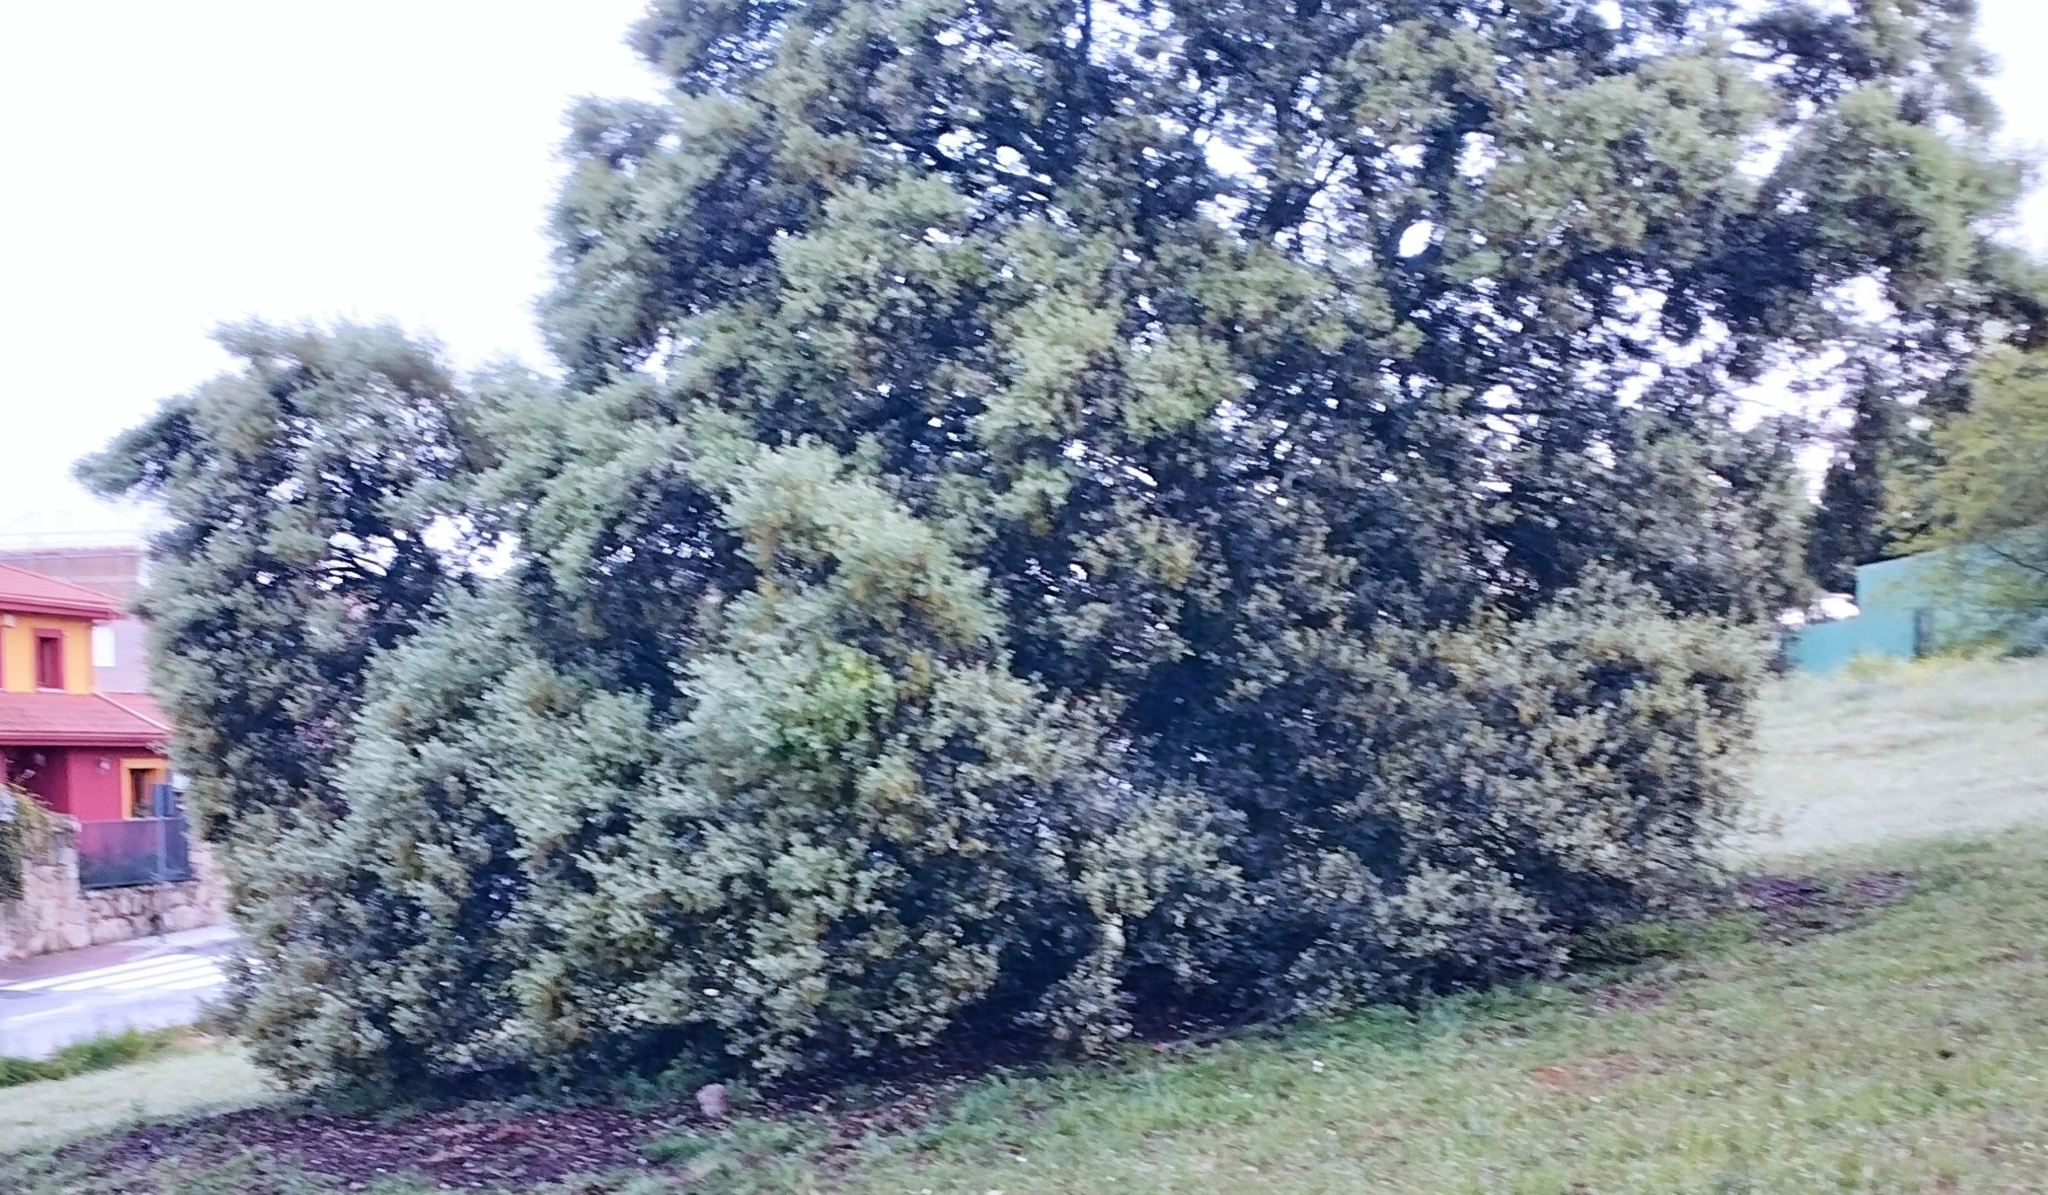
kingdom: Plantae
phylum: Tracheophyta
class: Magnoliopsida
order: Fagales
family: Fagaceae
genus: Quercus
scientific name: Quercus rotundifolia
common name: Holm oak
